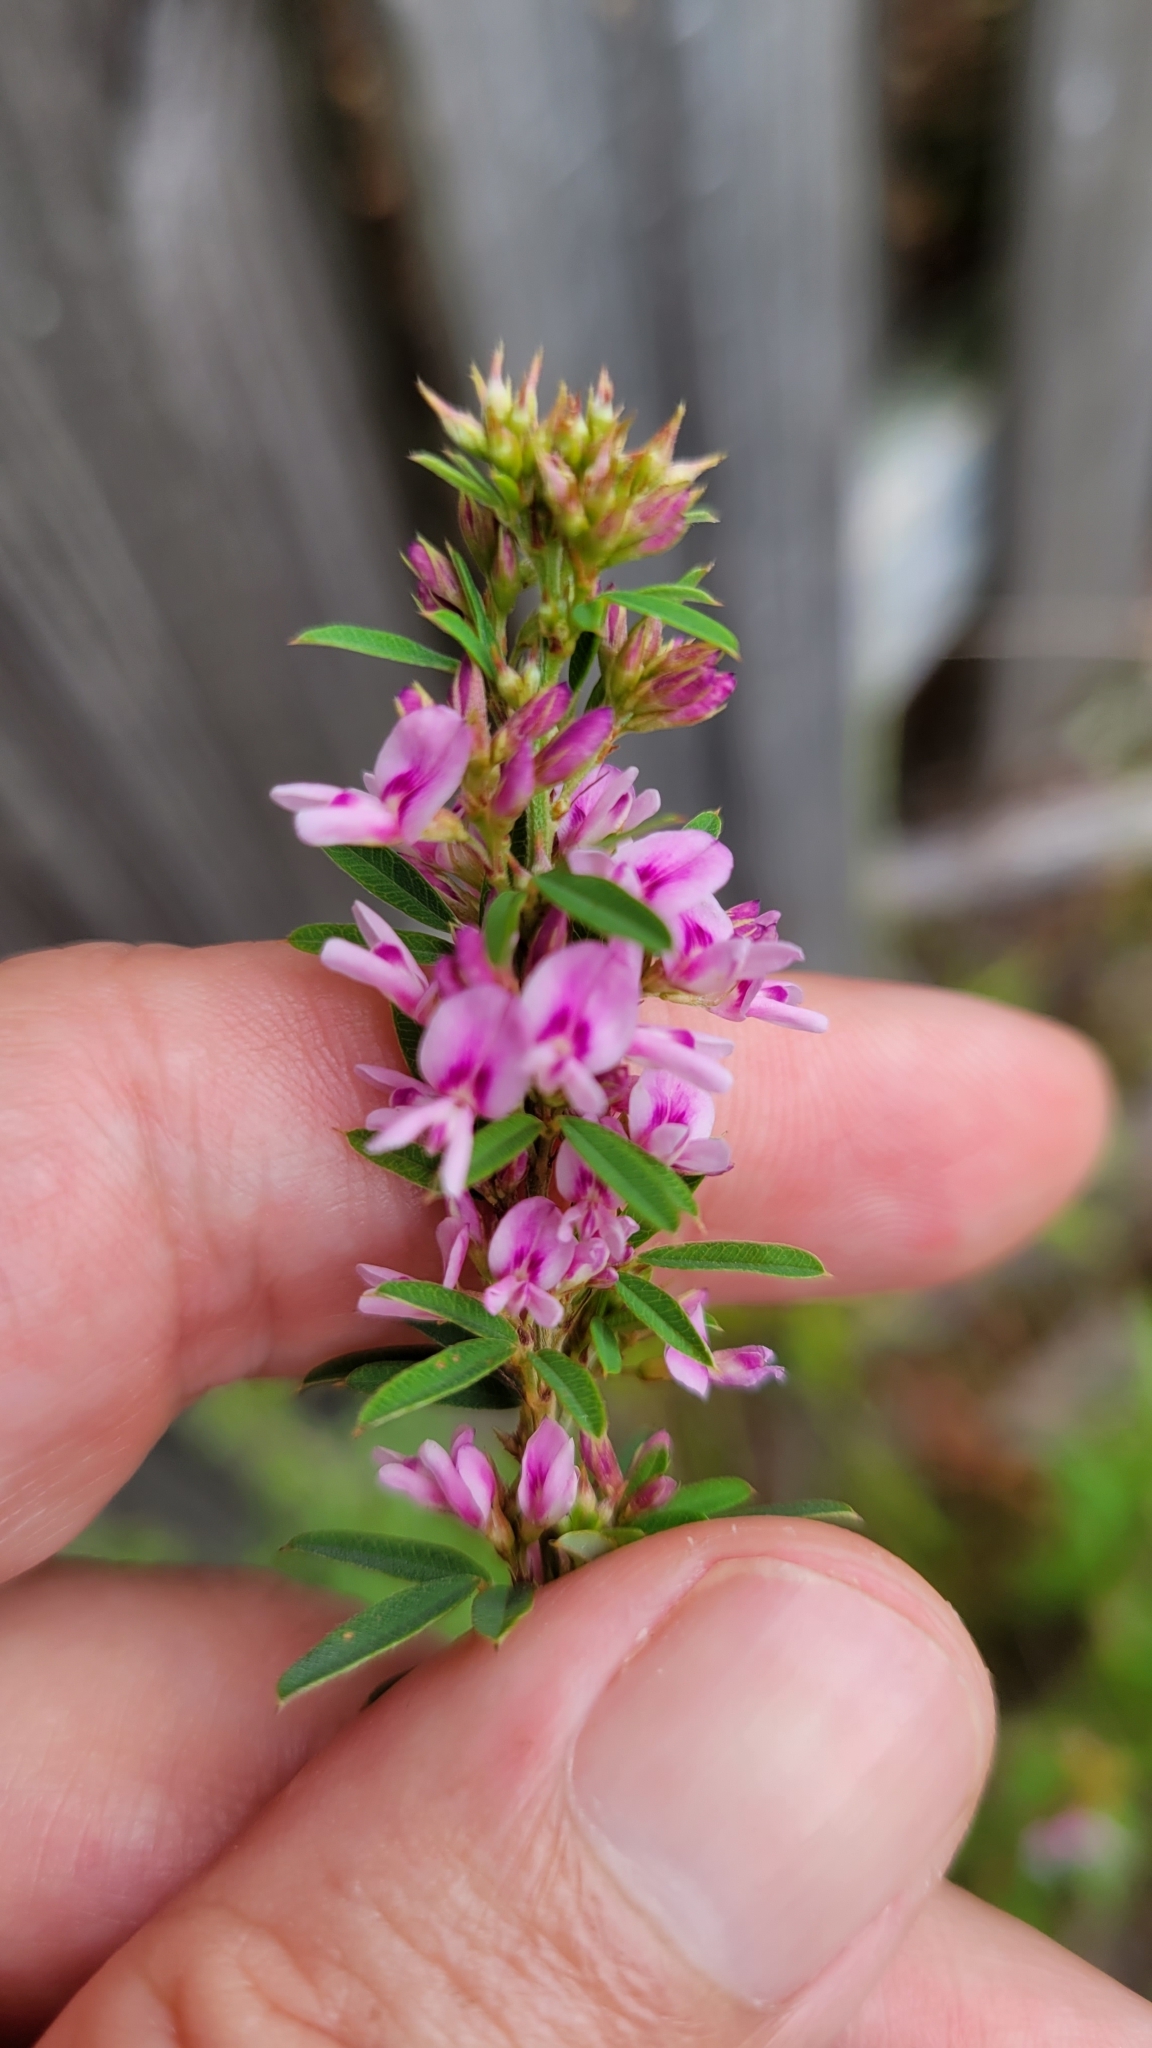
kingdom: Plantae
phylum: Tracheophyta
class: Magnoliopsida
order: Fabales
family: Fabaceae
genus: Lespedeza
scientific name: Lespedeza virginica
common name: Slender bush-clover
